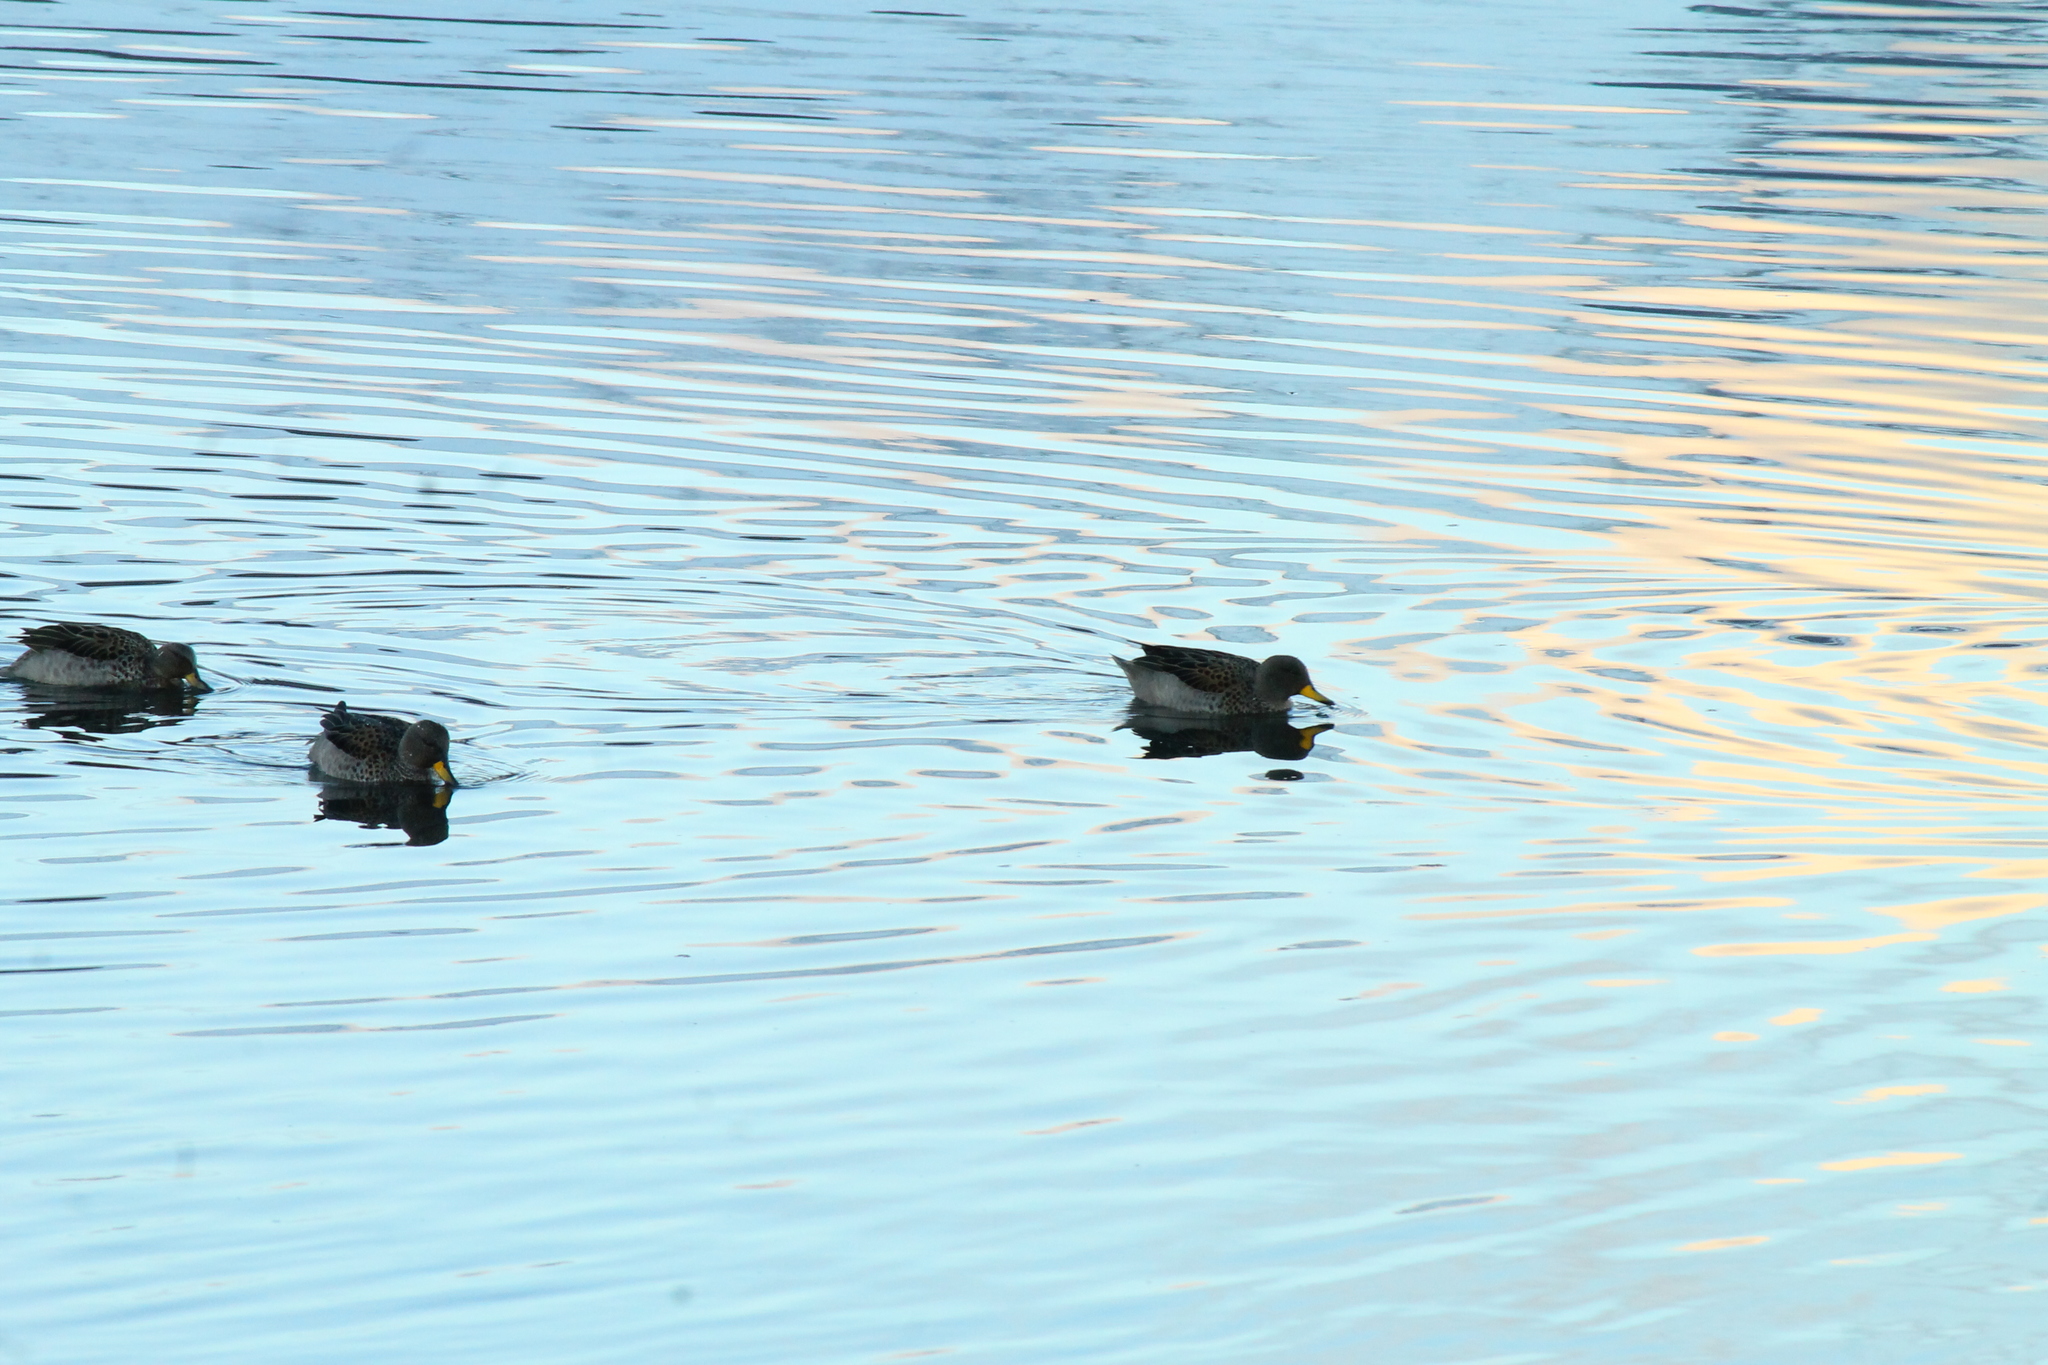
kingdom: Animalia
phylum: Chordata
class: Aves
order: Anseriformes
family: Anatidae
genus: Anas
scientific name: Anas flavirostris
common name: Yellow-billed teal
